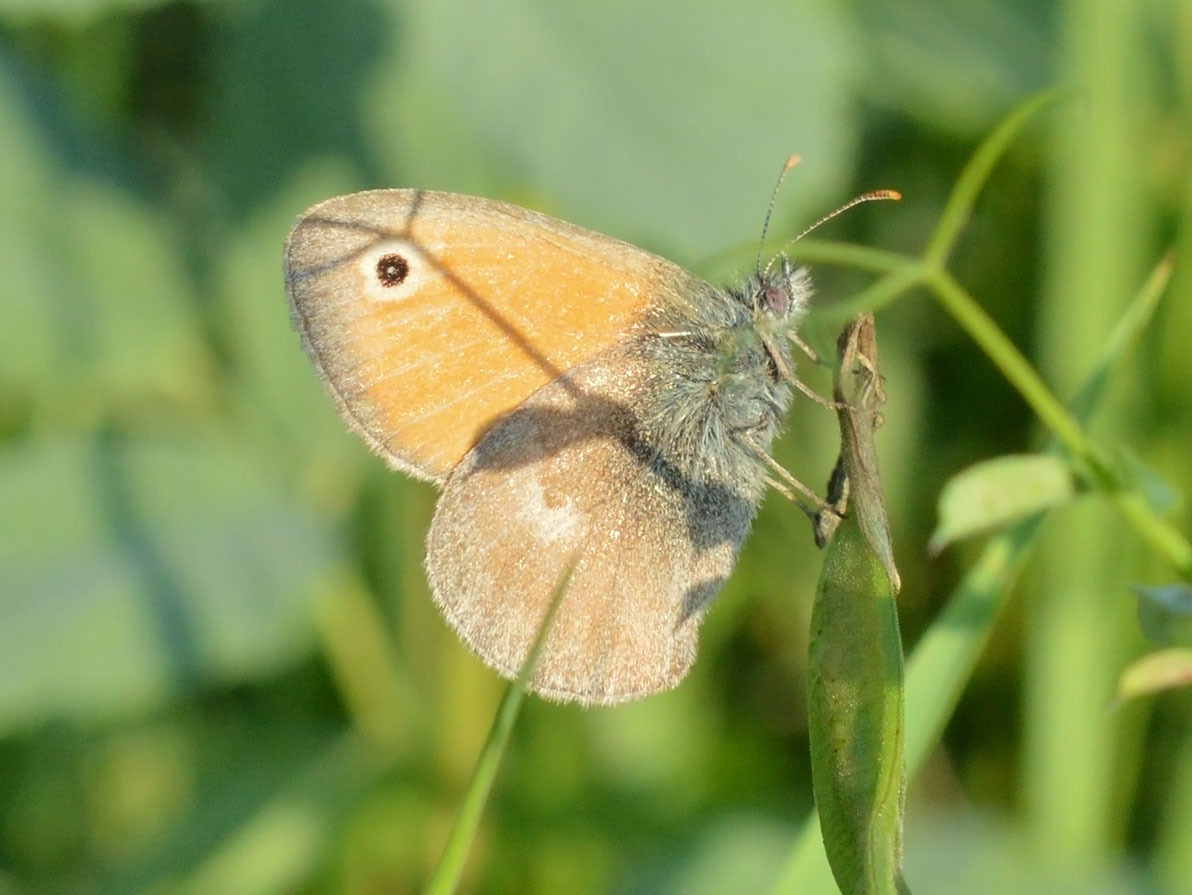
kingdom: Animalia
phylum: Arthropoda
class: Insecta
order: Lepidoptera
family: Nymphalidae
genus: Coenonympha
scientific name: Coenonympha pamphilus
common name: Small heath
